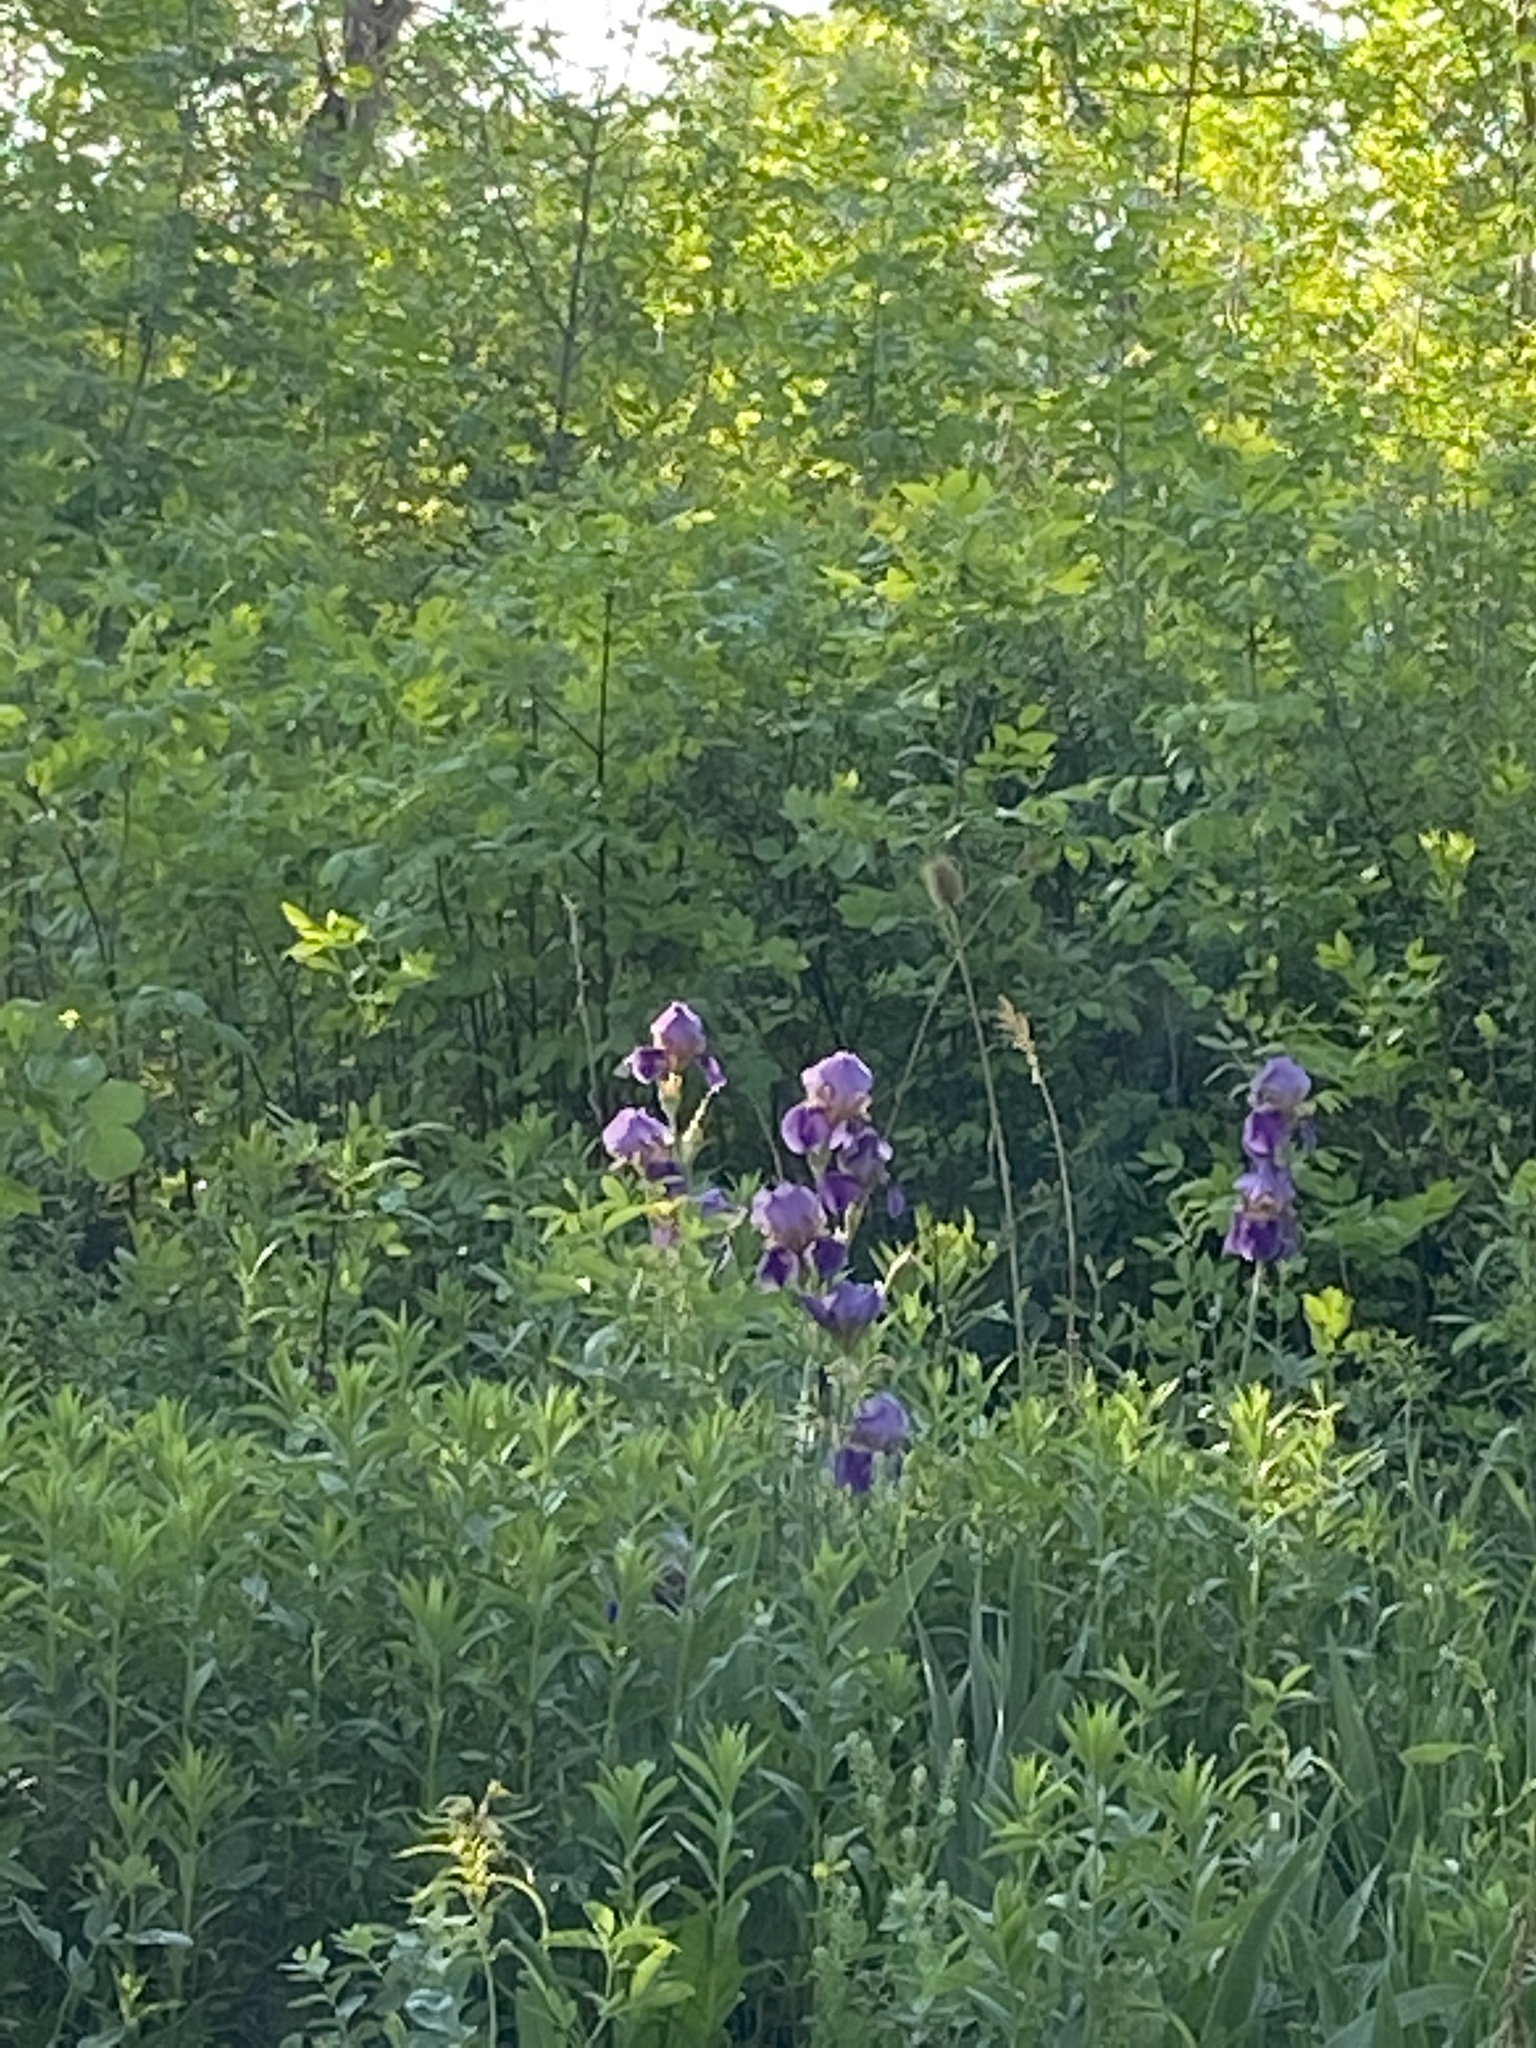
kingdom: Plantae
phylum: Tracheophyta
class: Liliopsida
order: Asparagales
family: Iridaceae
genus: Iris
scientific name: Iris germanica
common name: German iris
